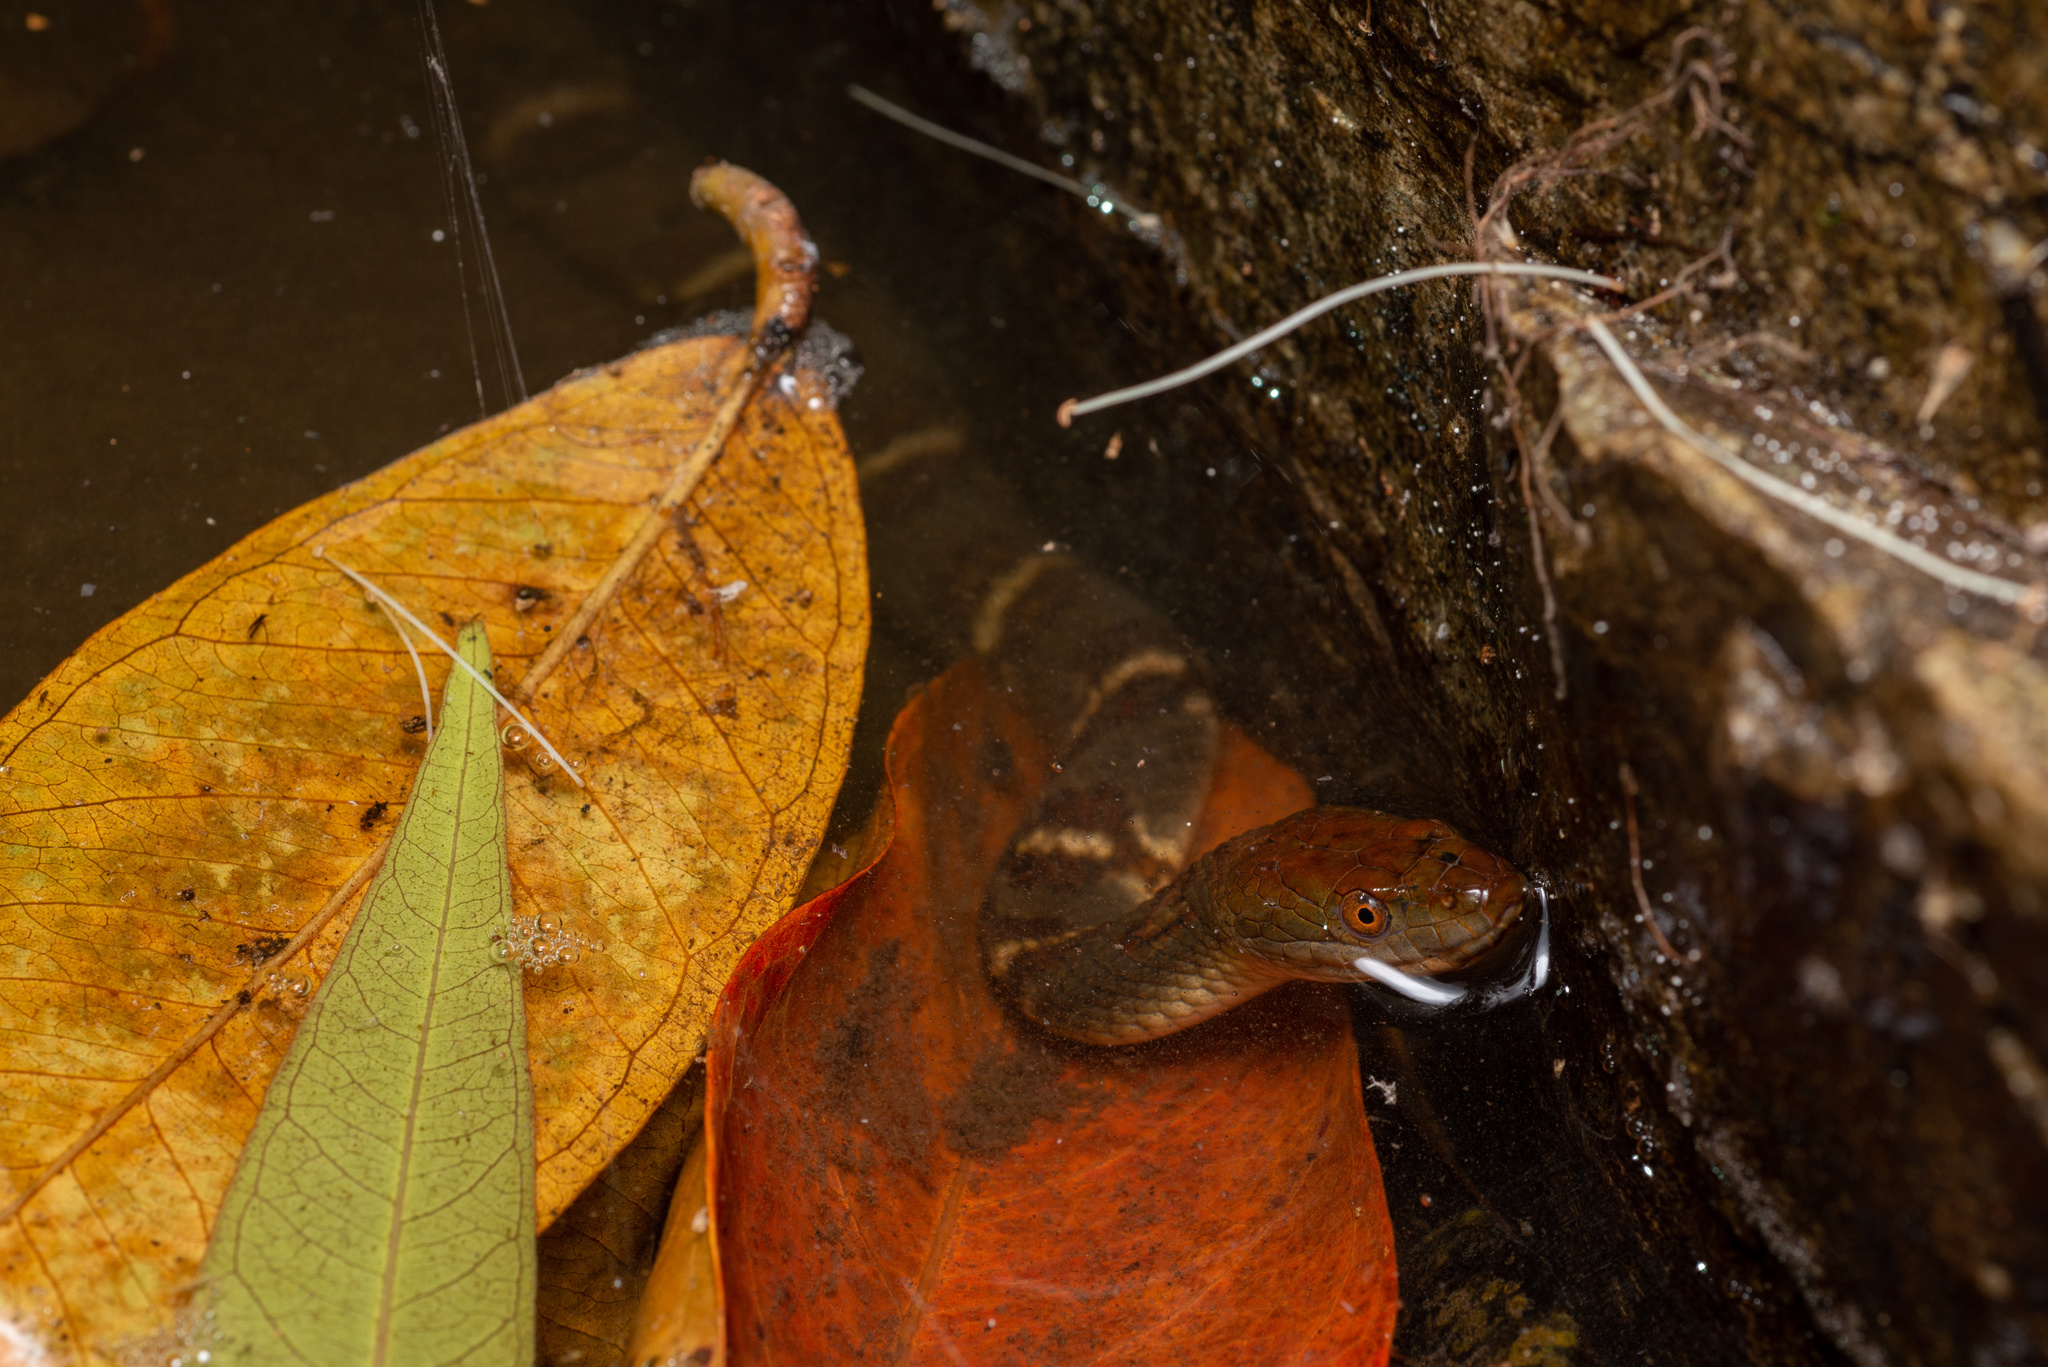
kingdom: Animalia
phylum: Chordata
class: Squamata
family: Colubridae
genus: Trimerodytes
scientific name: Trimerodytes aequifasciatus
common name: Asiatic water snake
